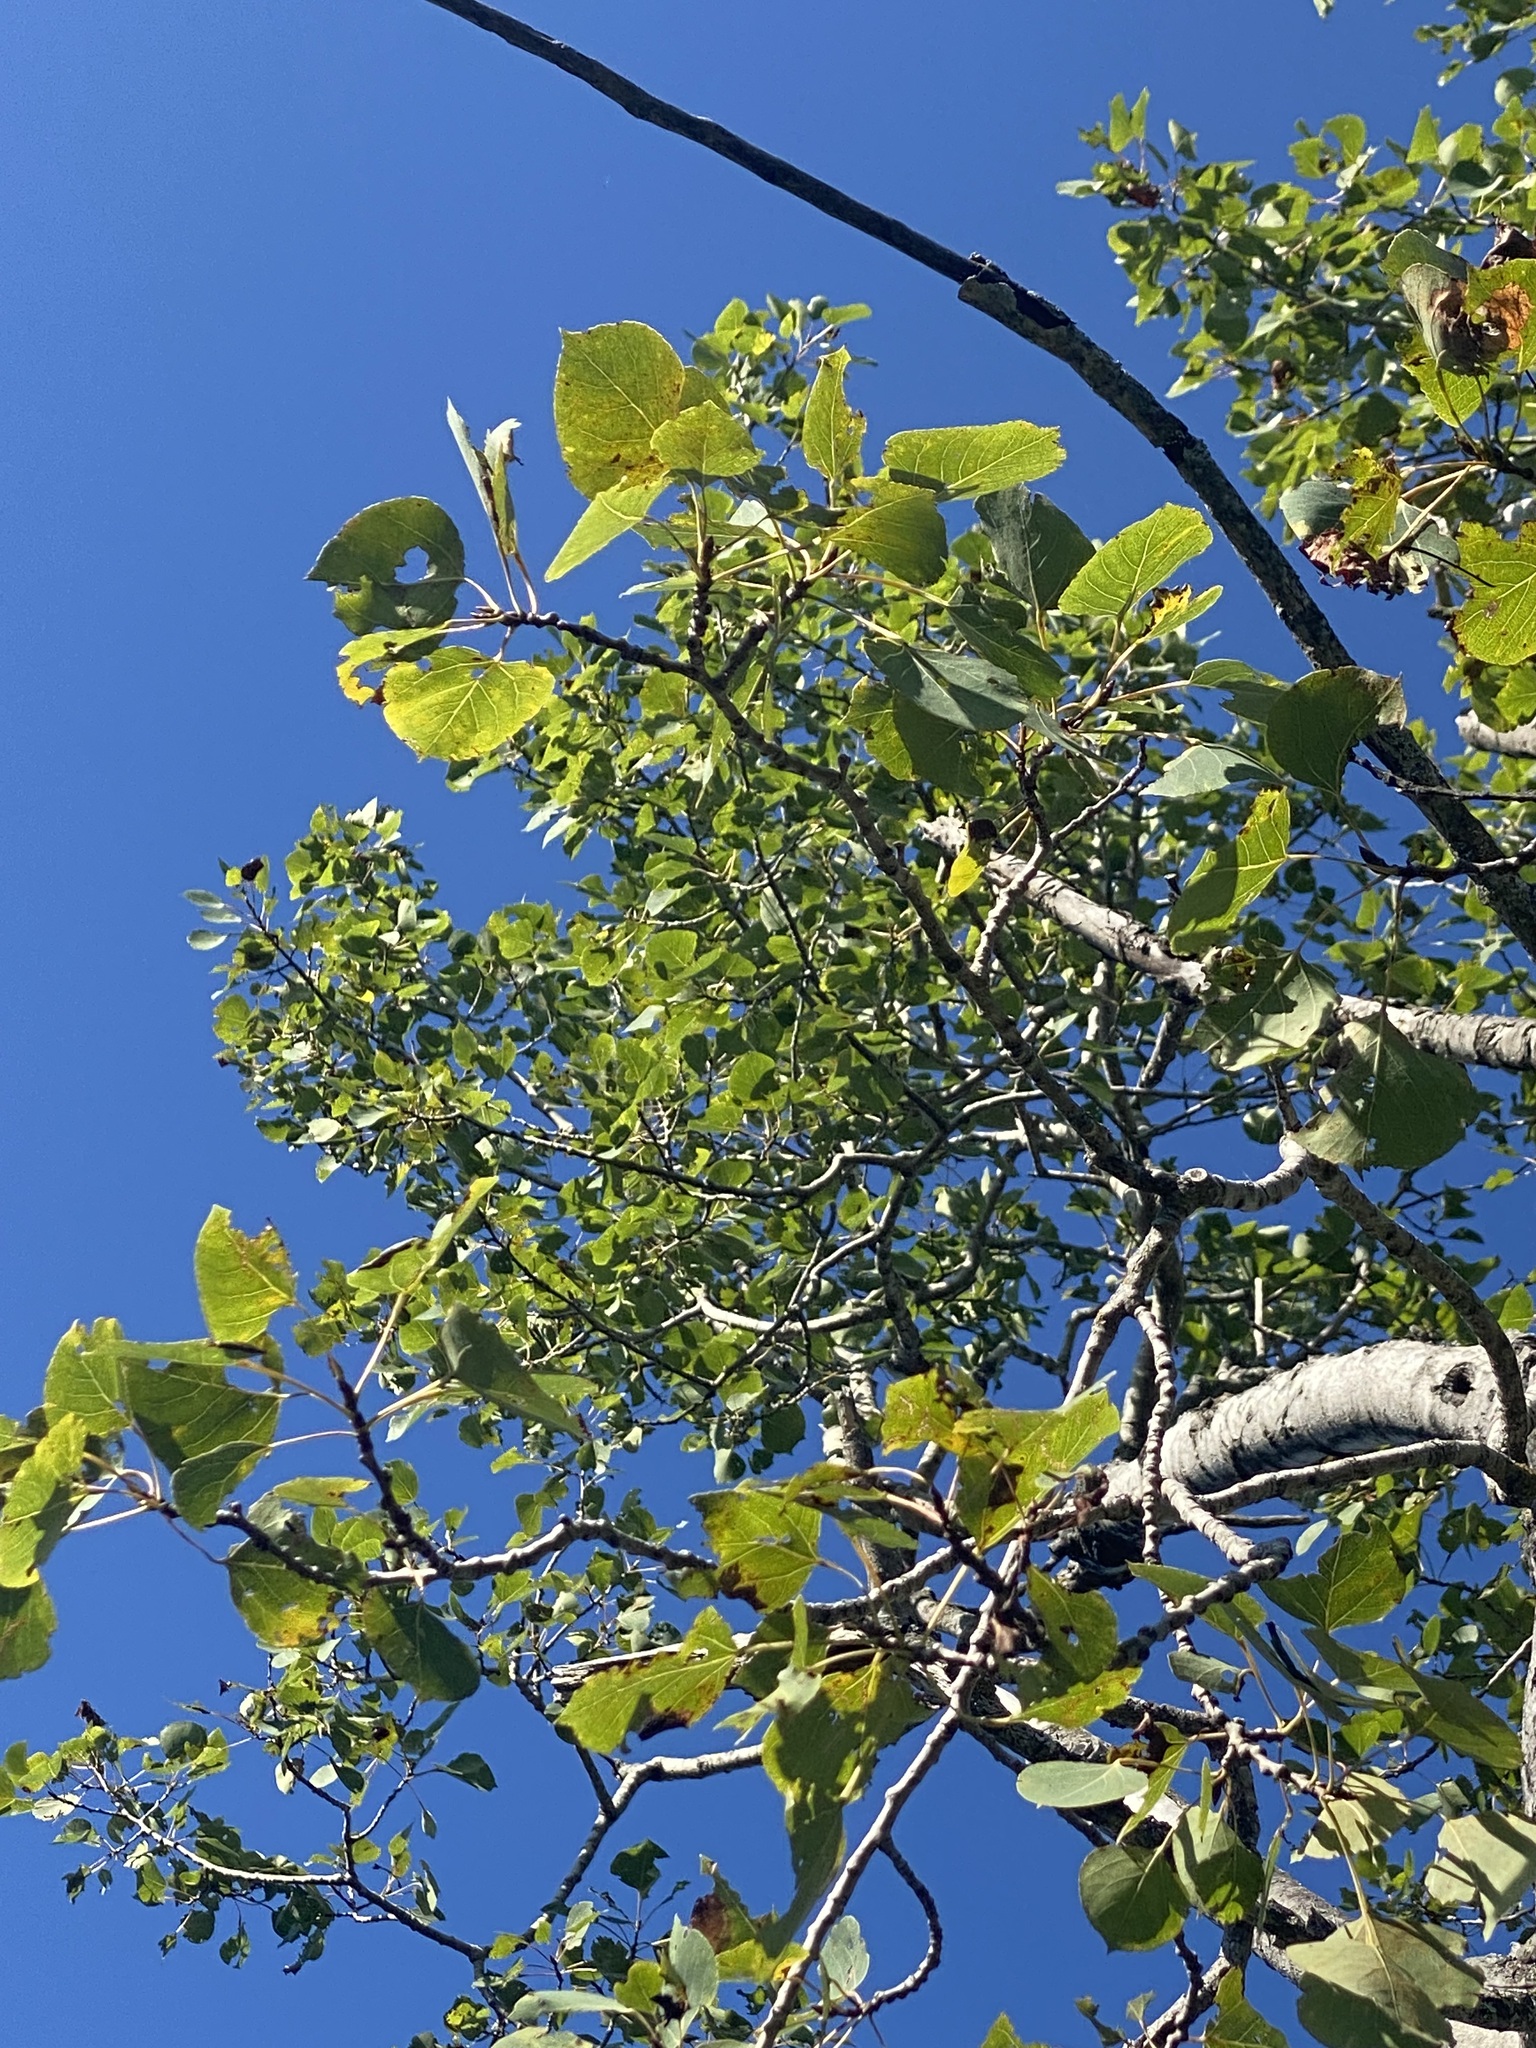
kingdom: Plantae
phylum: Tracheophyta
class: Magnoliopsida
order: Malpighiales
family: Salicaceae
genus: Populus
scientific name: Populus tremuloides
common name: Quaking aspen
